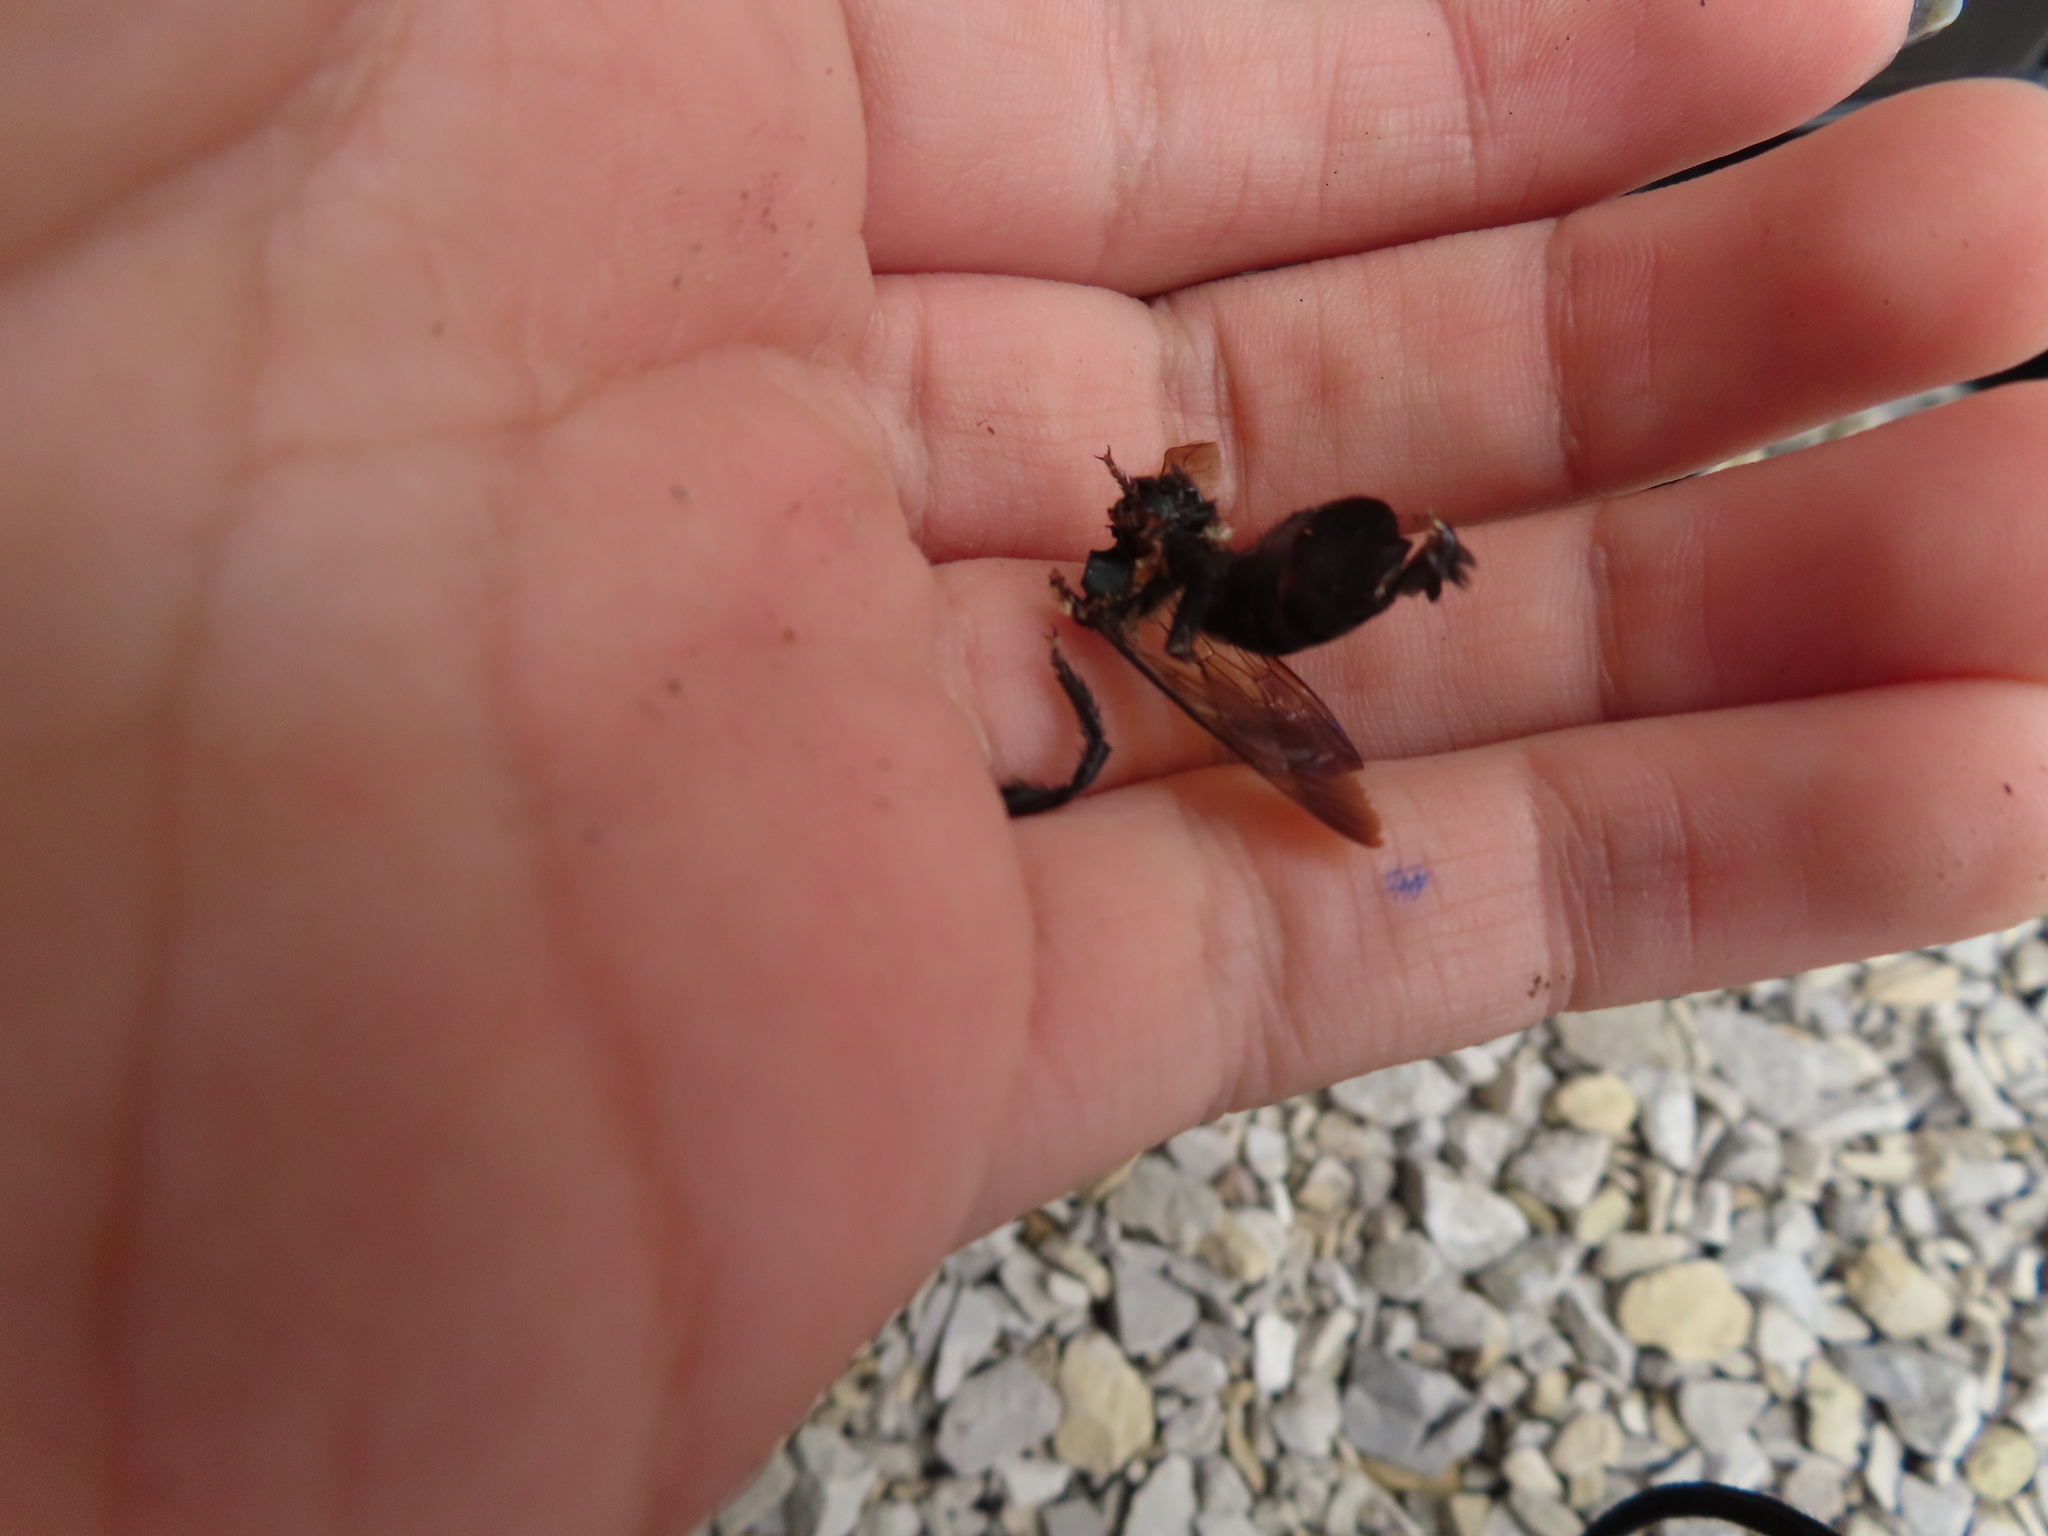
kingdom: Animalia
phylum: Arthropoda
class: Insecta
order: Hymenoptera
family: Apidae
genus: Xylocopa
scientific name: Xylocopa virginica
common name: Carpenter bee
